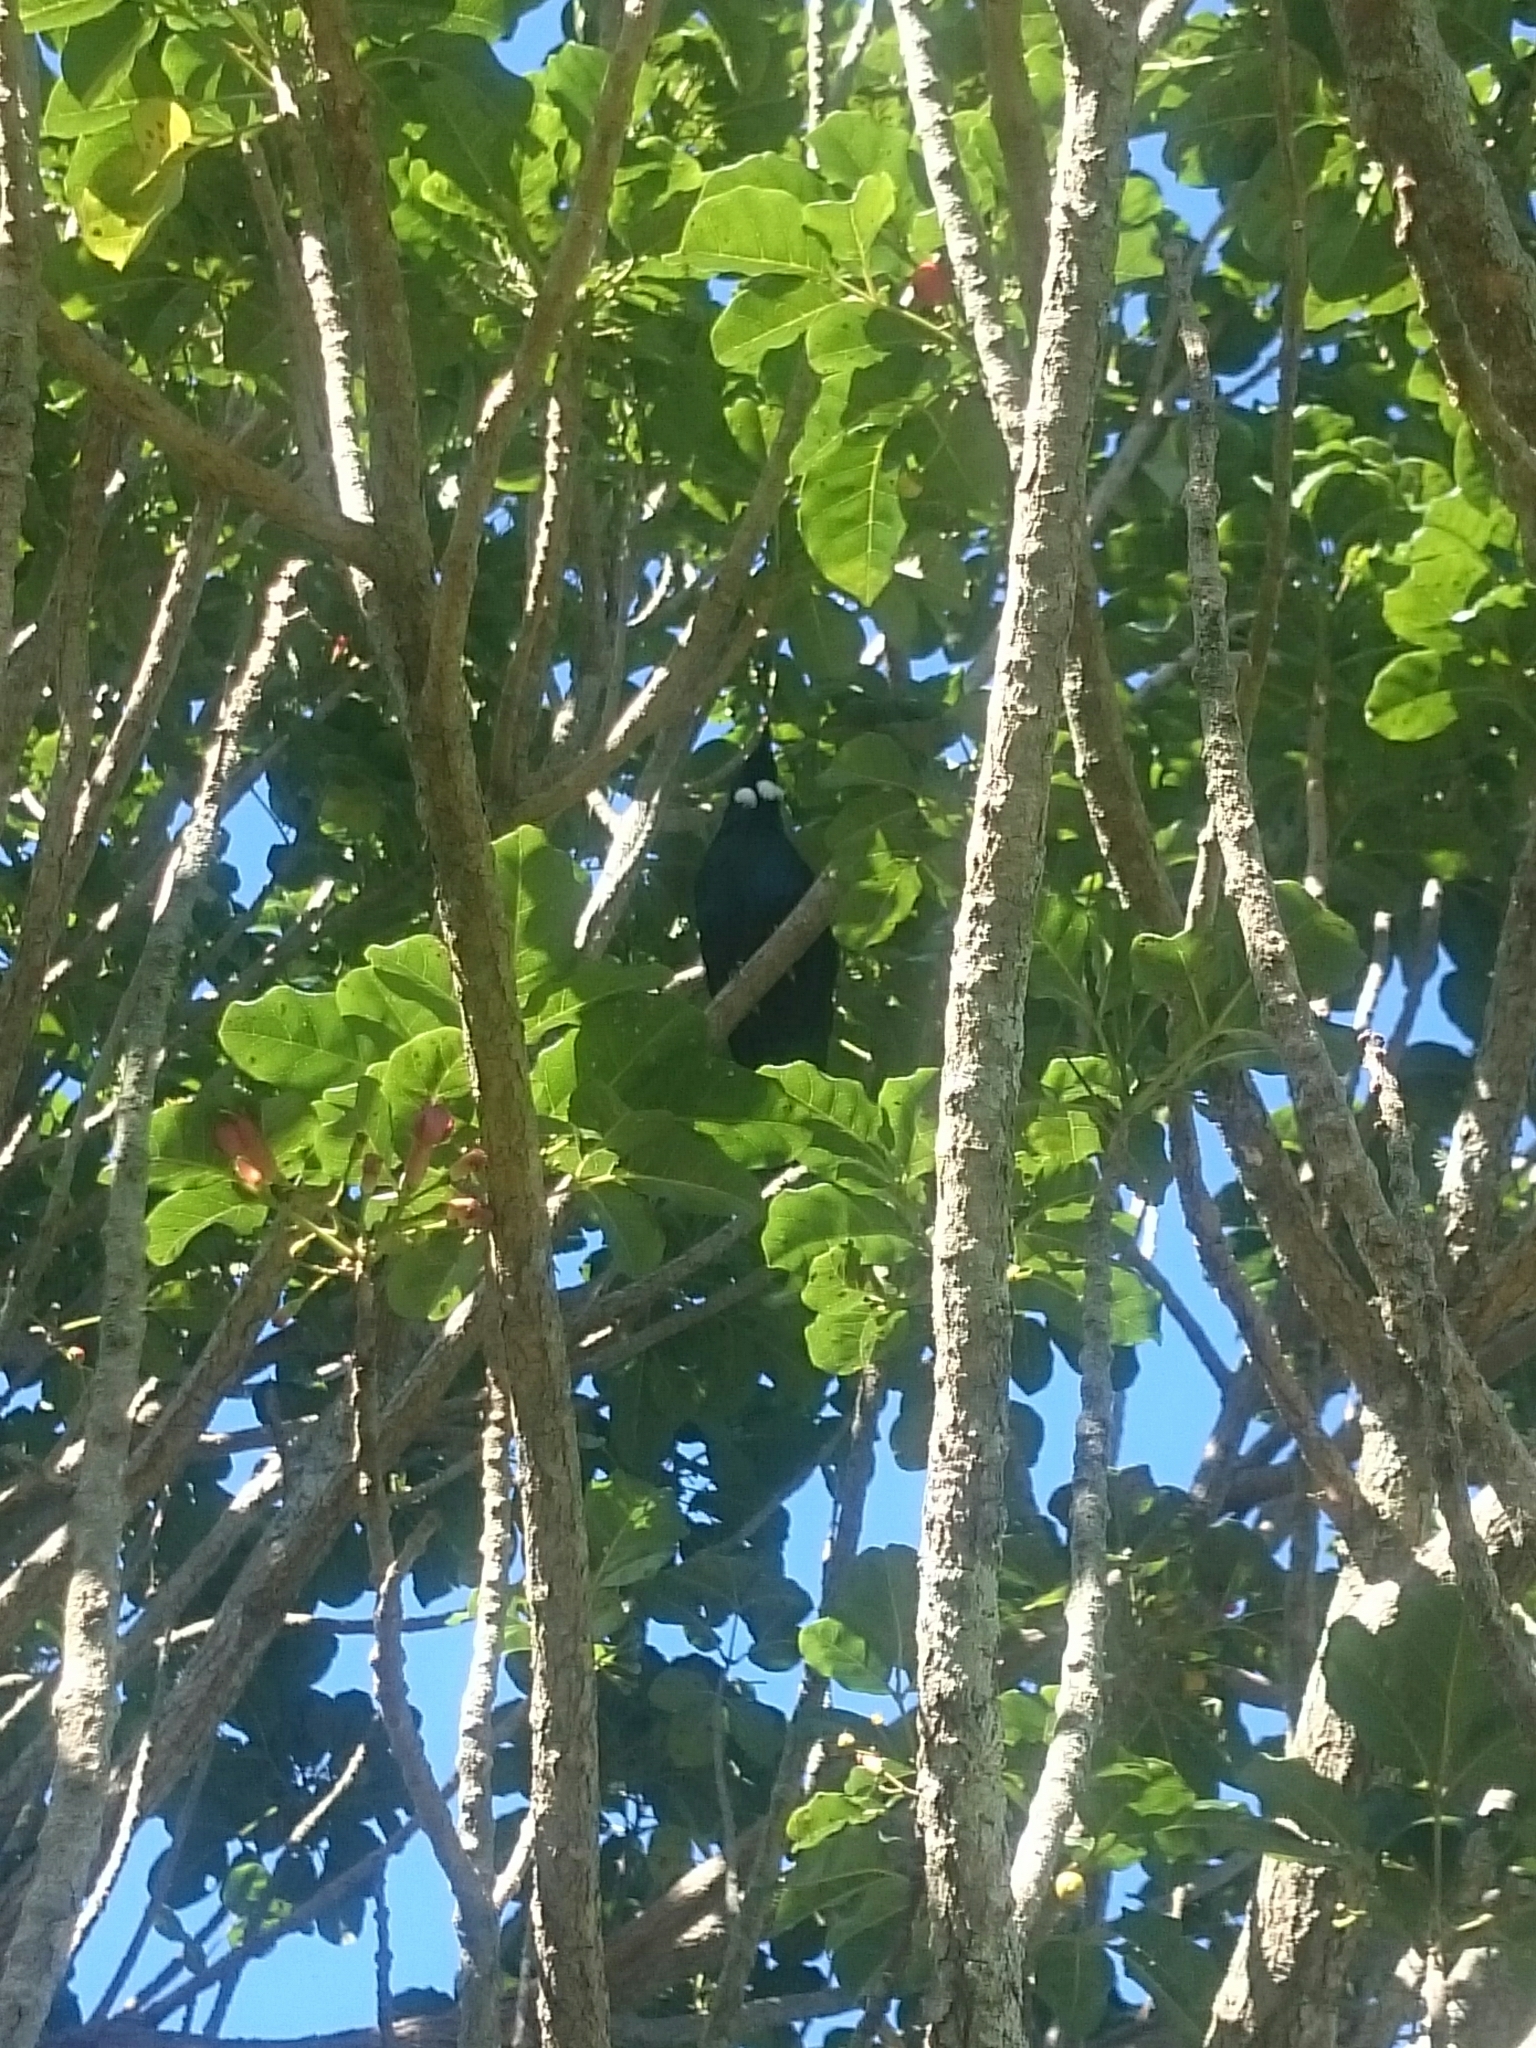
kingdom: Animalia
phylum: Chordata
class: Aves
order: Passeriformes
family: Meliphagidae
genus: Prosthemadera
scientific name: Prosthemadera novaeseelandiae
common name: Tui
